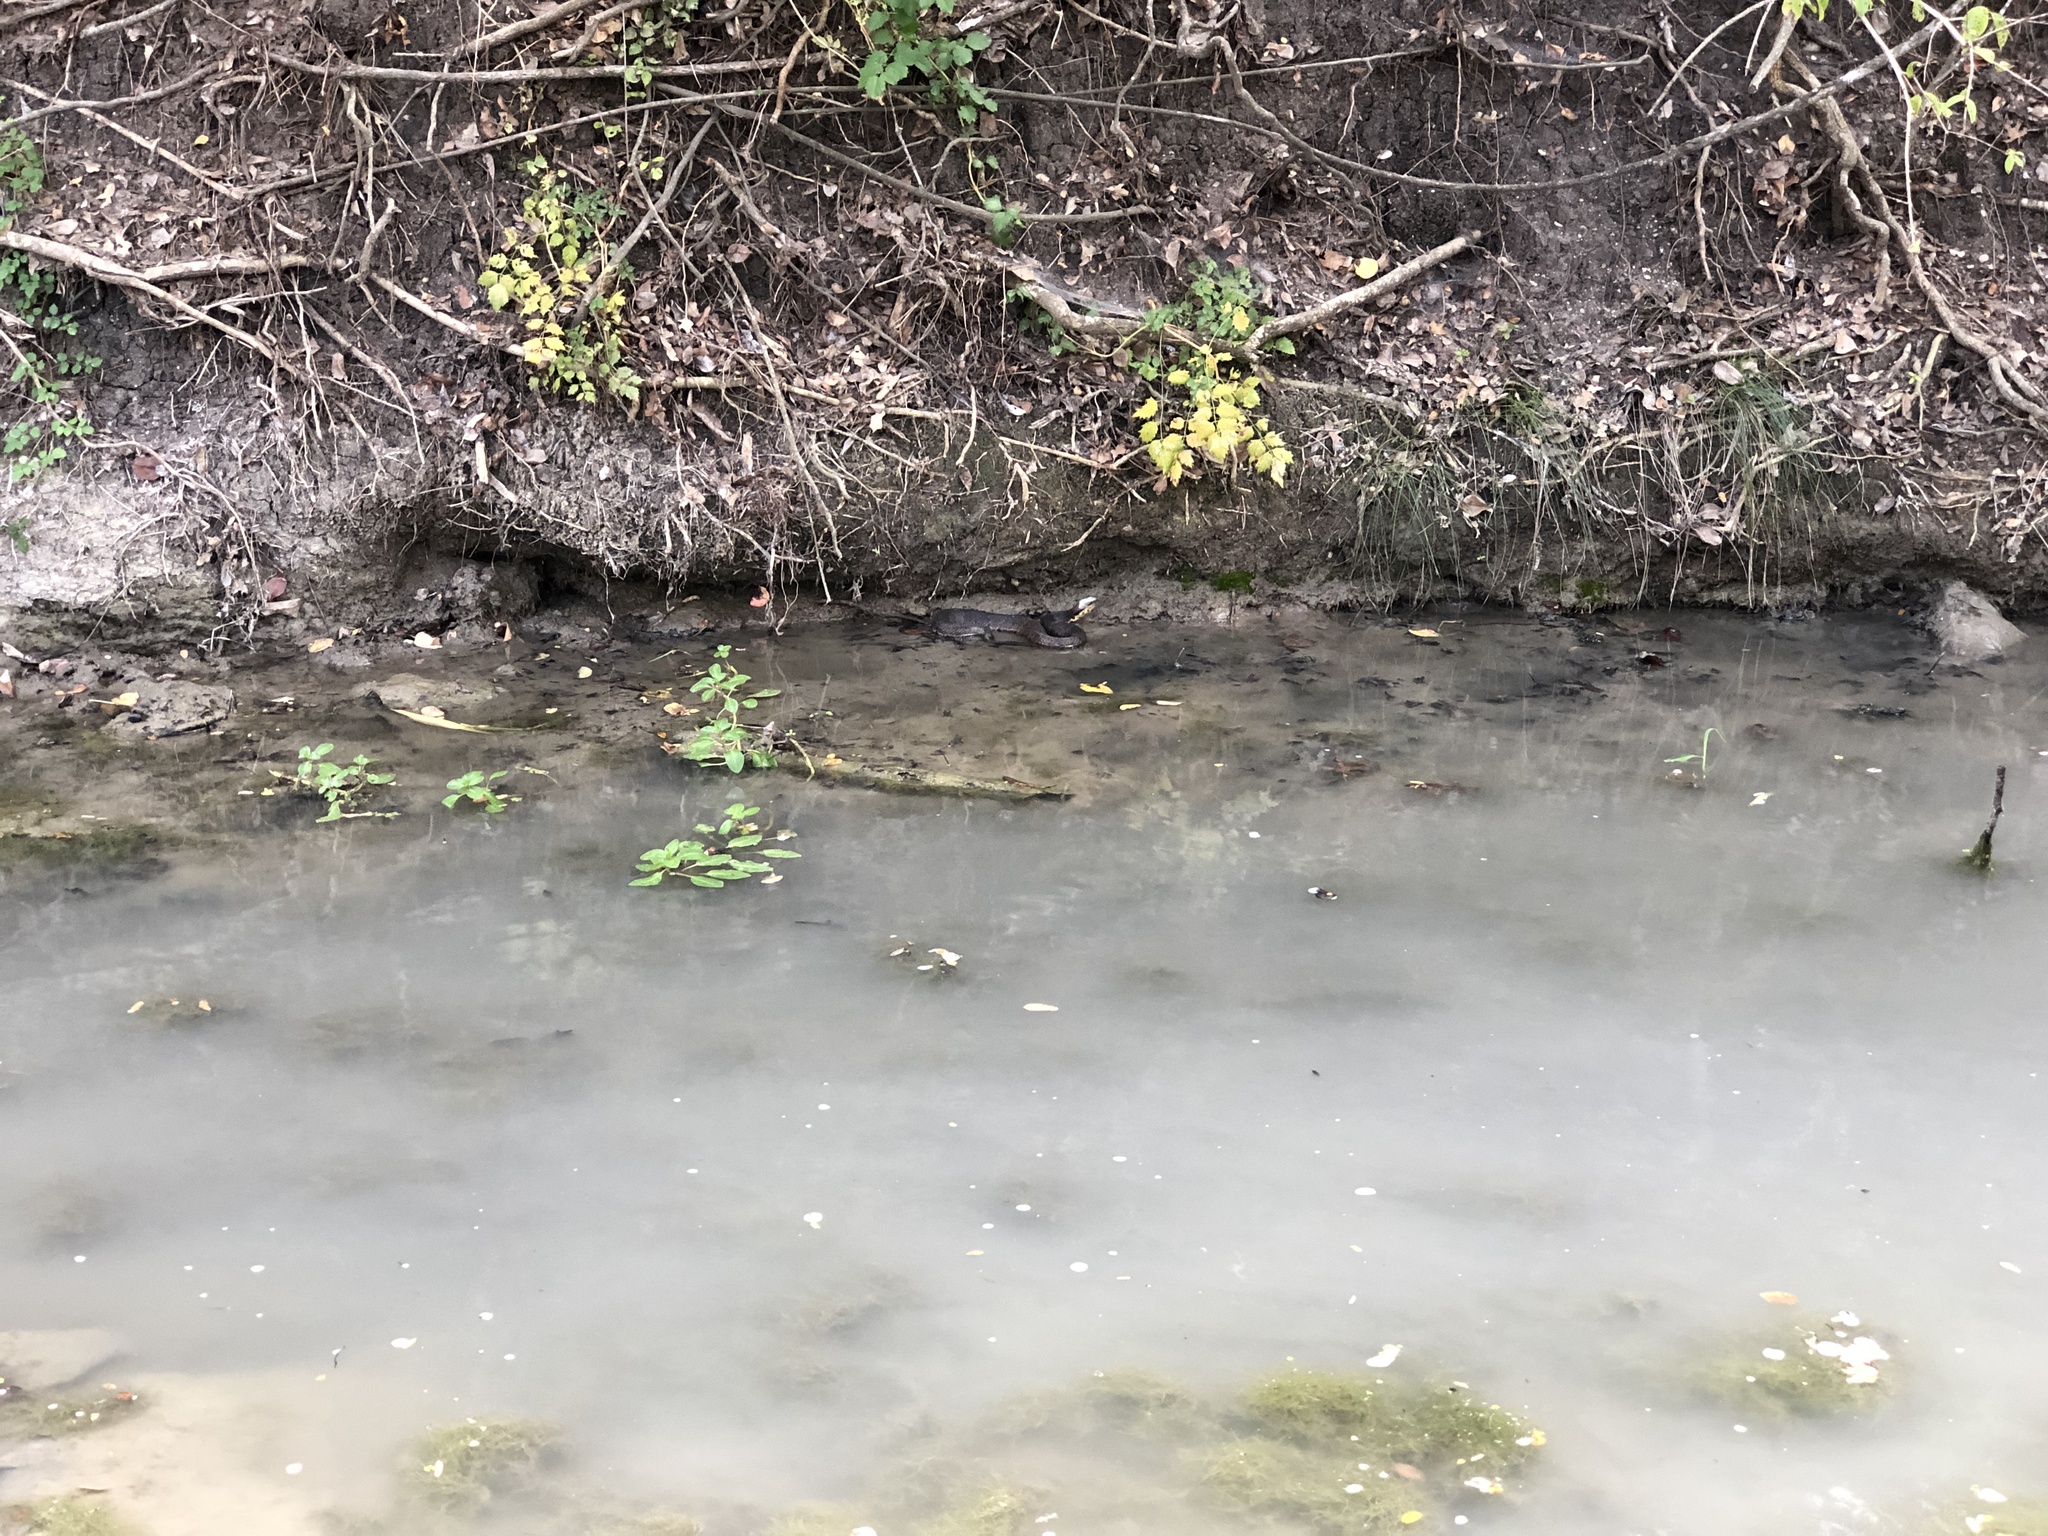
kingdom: Animalia
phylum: Chordata
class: Squamata
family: Viperidae
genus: Agkistrodon
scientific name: Agkistrodon piscivorus
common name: Cottonmouth
